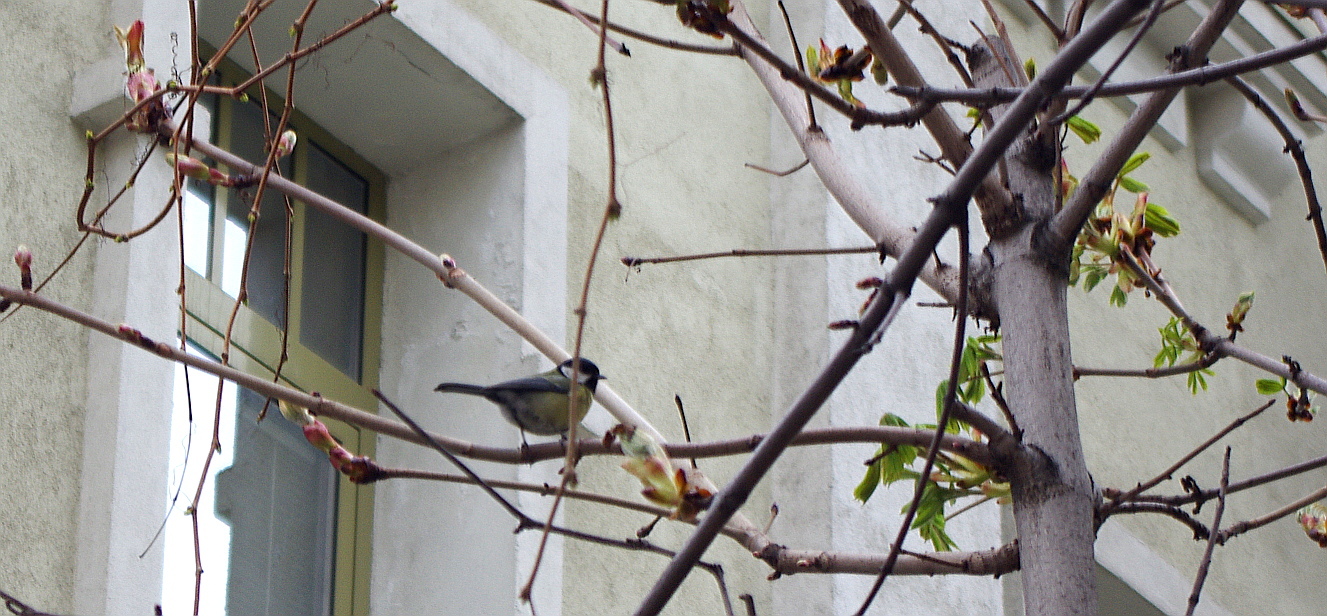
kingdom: Animalia
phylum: Chordata
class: Aves
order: Passeriformes
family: Paridae
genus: Parus
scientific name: Parus major
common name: Great tit
